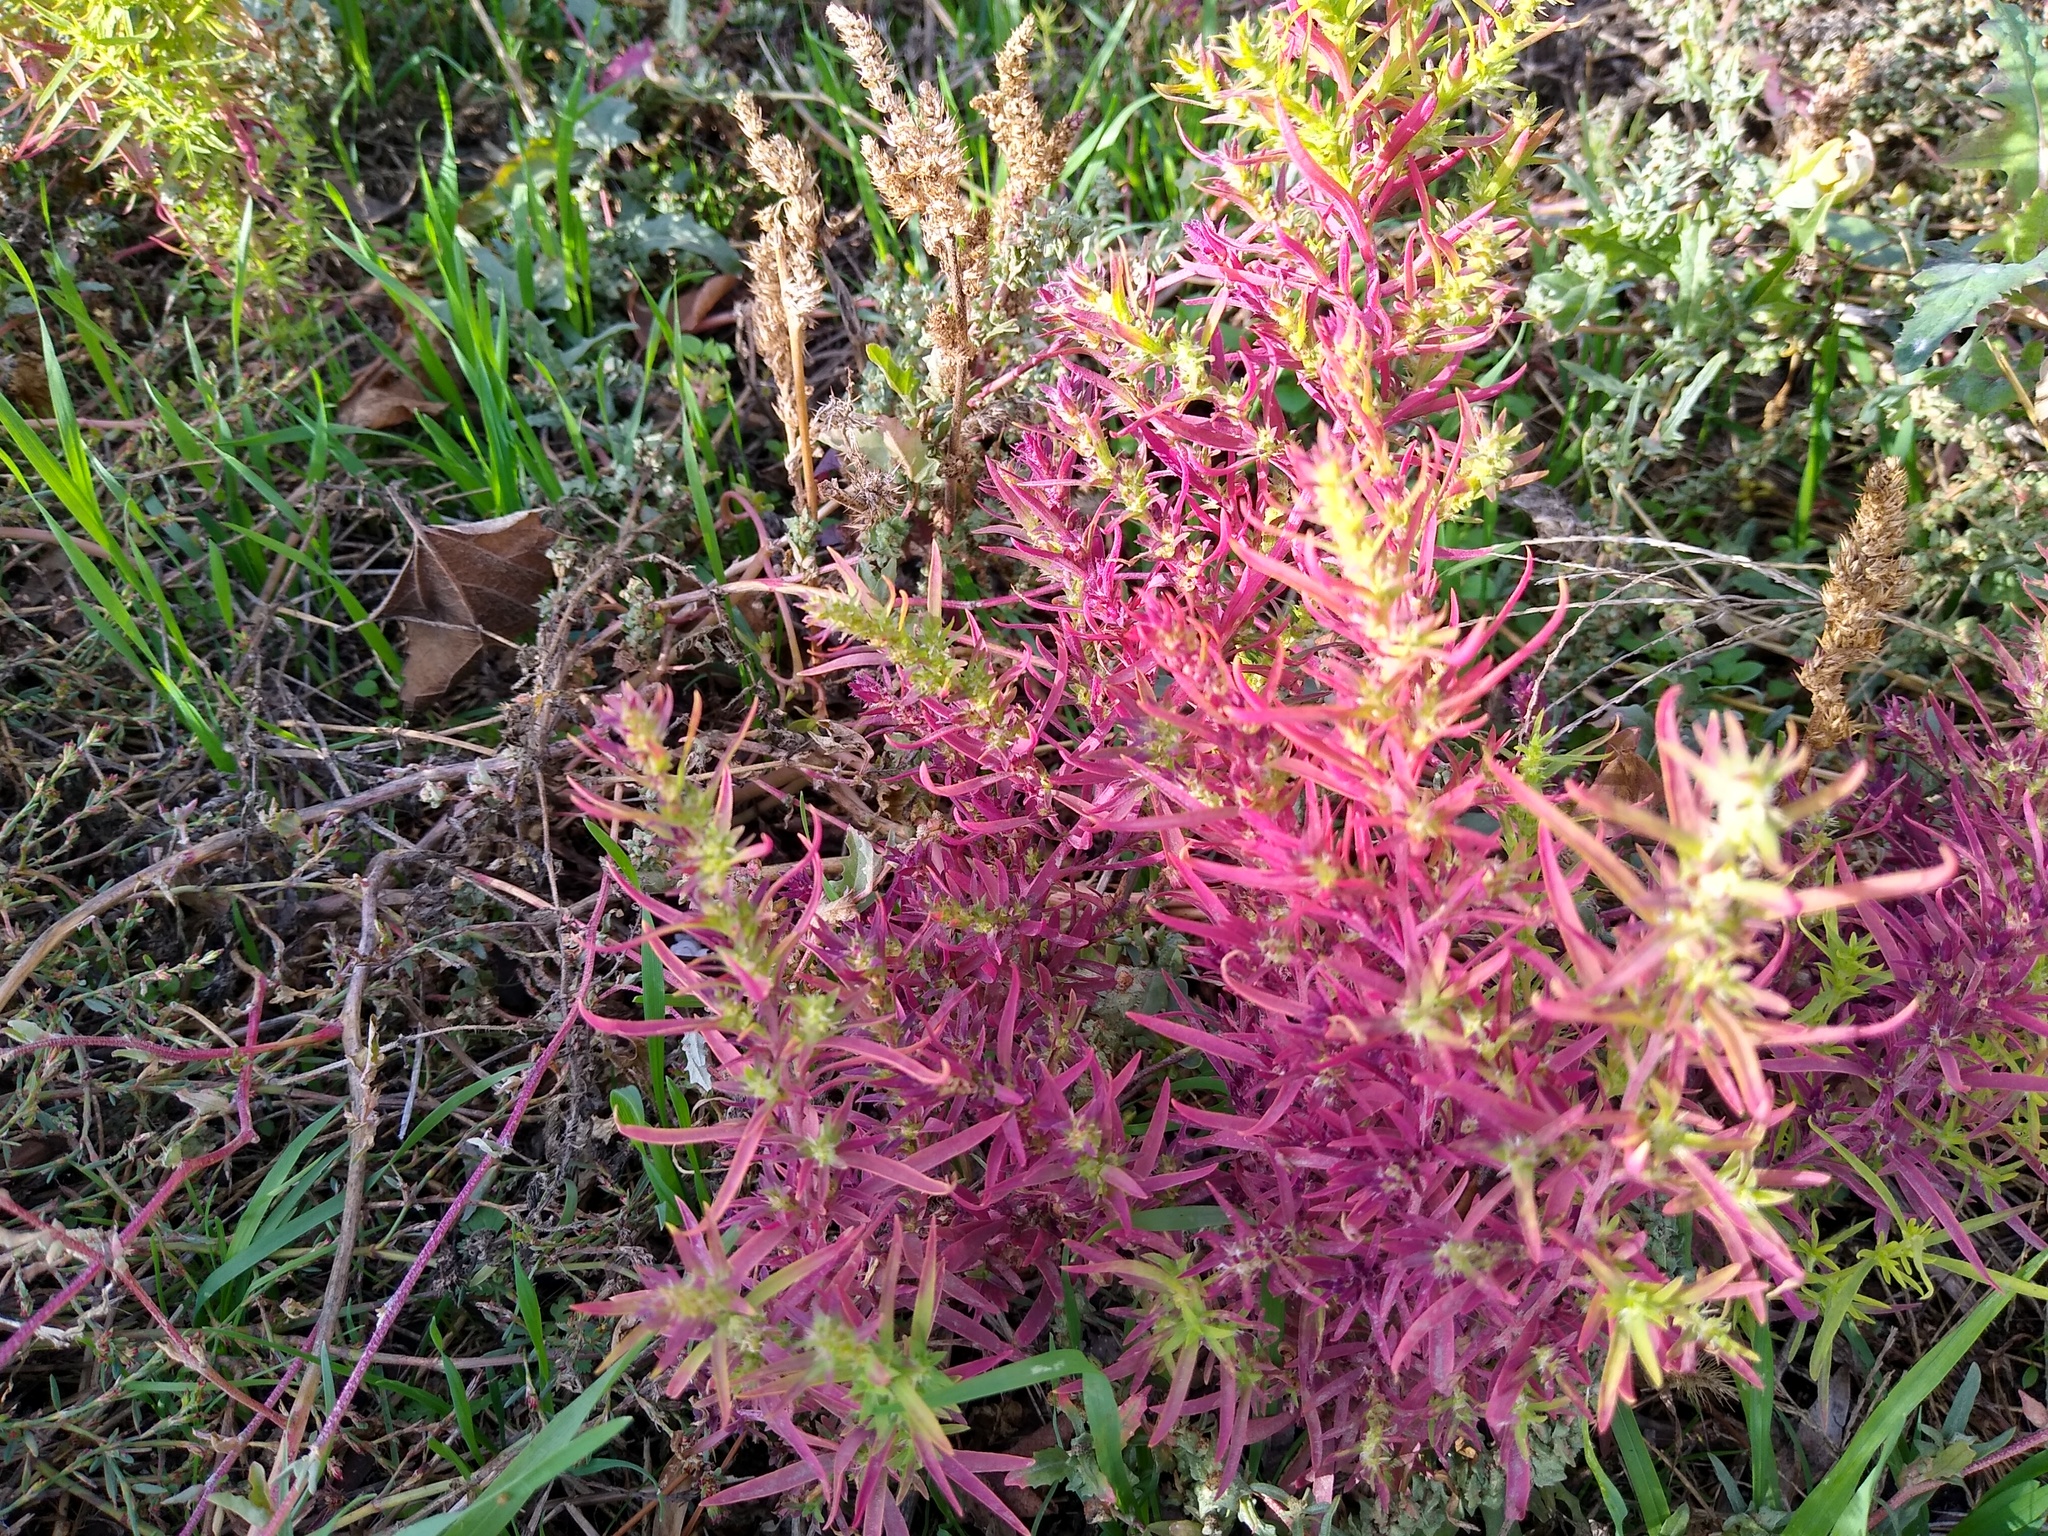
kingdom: Plantae
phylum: Tracheophyta
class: Magnoliopsida
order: Caryophyllales
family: Amaranthaceae
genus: Bassia
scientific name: Bassia scoparia
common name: Belvedere
